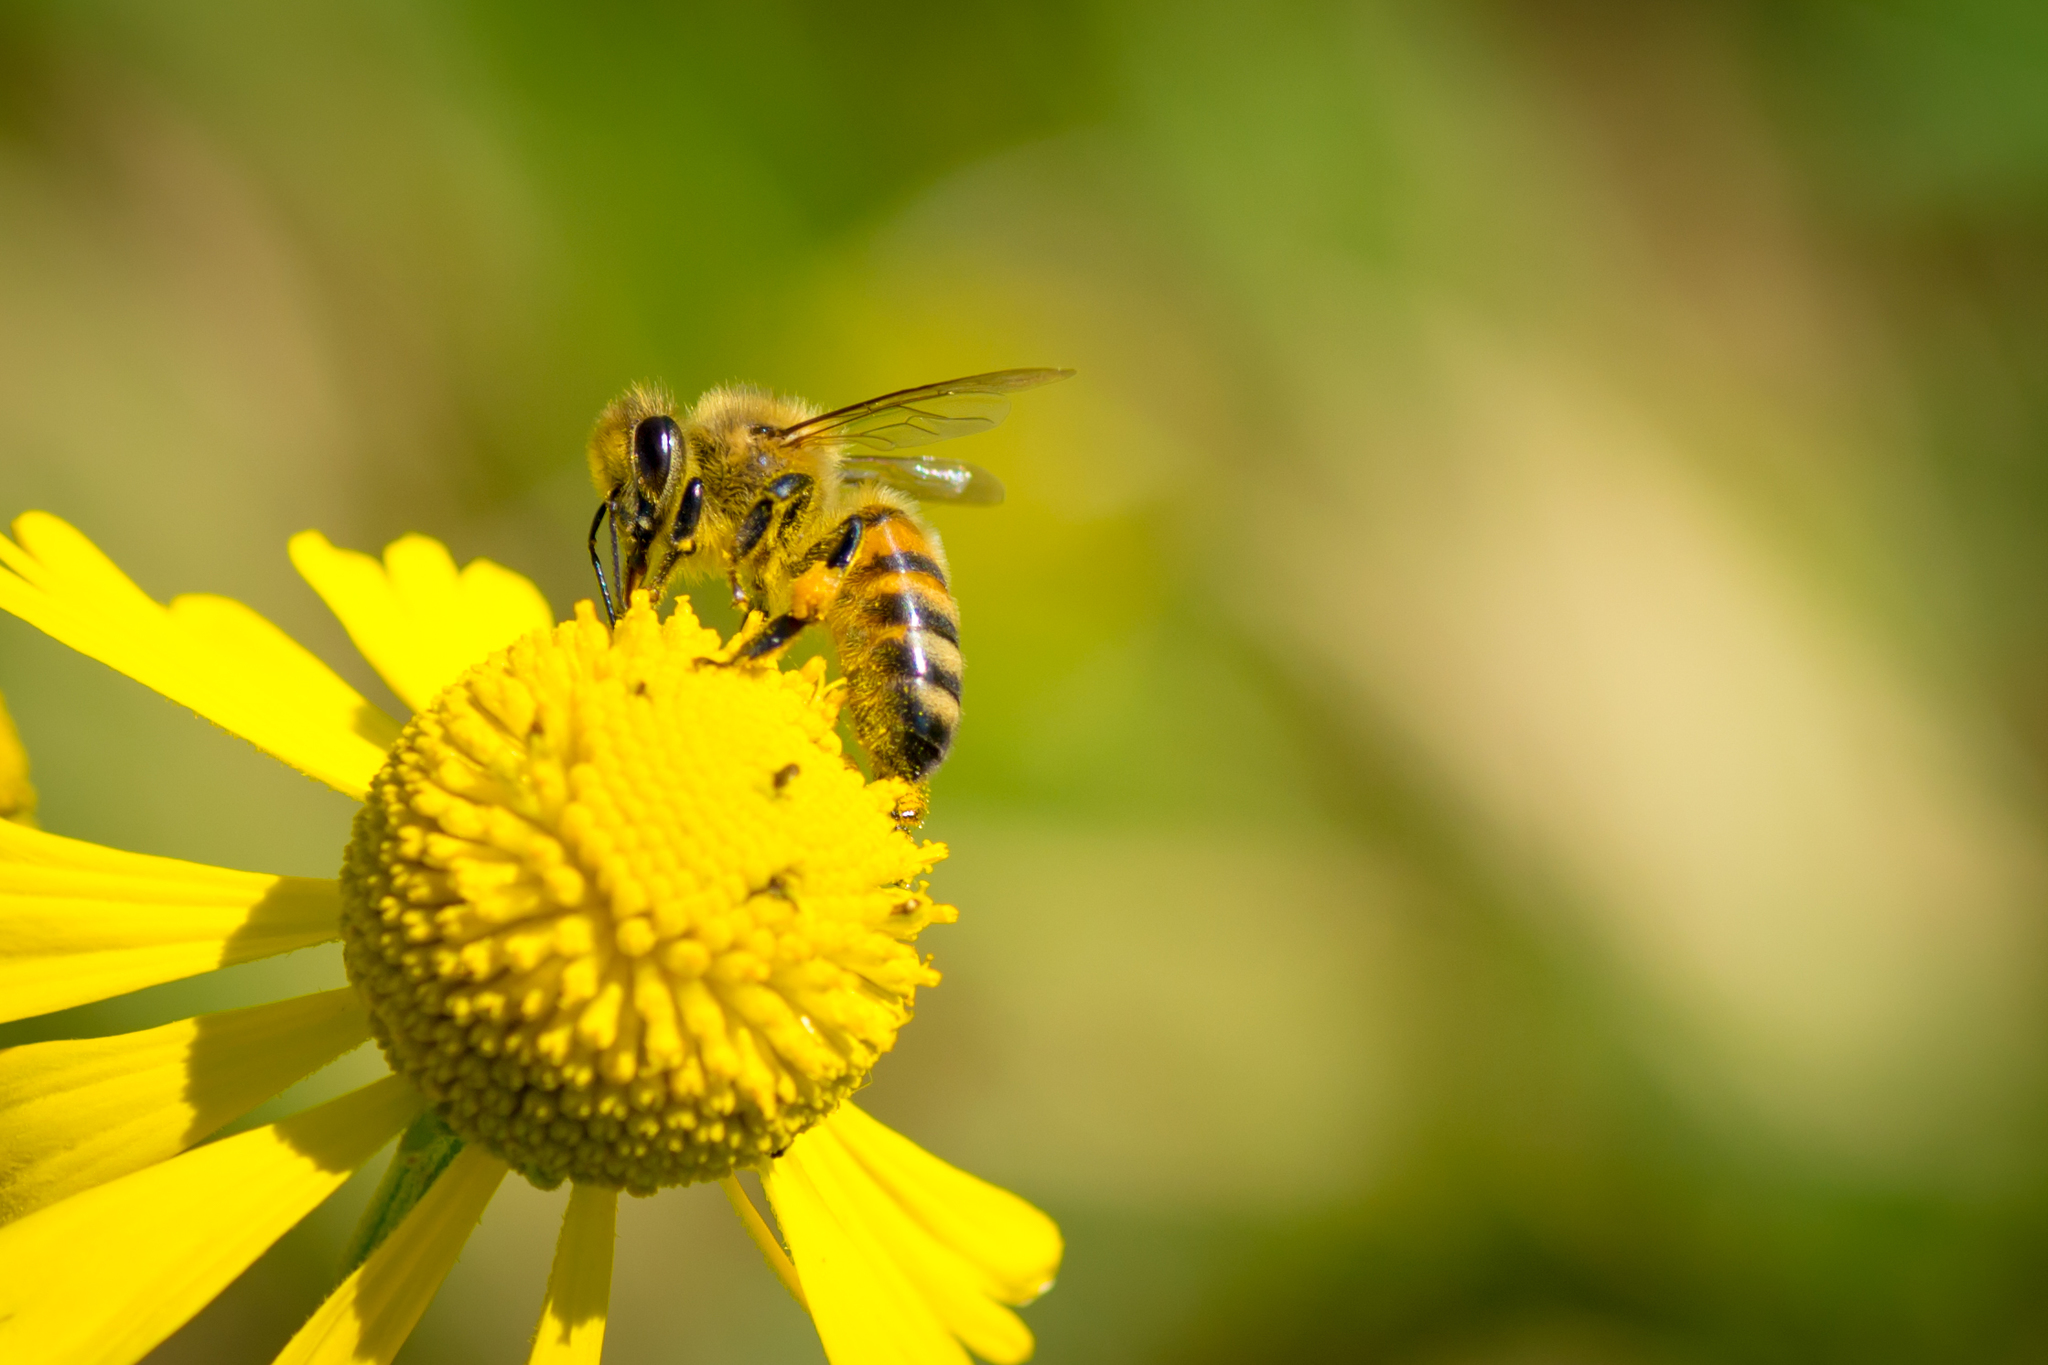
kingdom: Animalia
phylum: Arthropoda
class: Insecta
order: Hymenoptera
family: Apidae
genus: Apis
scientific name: Apis mellifera
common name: Honey bee
